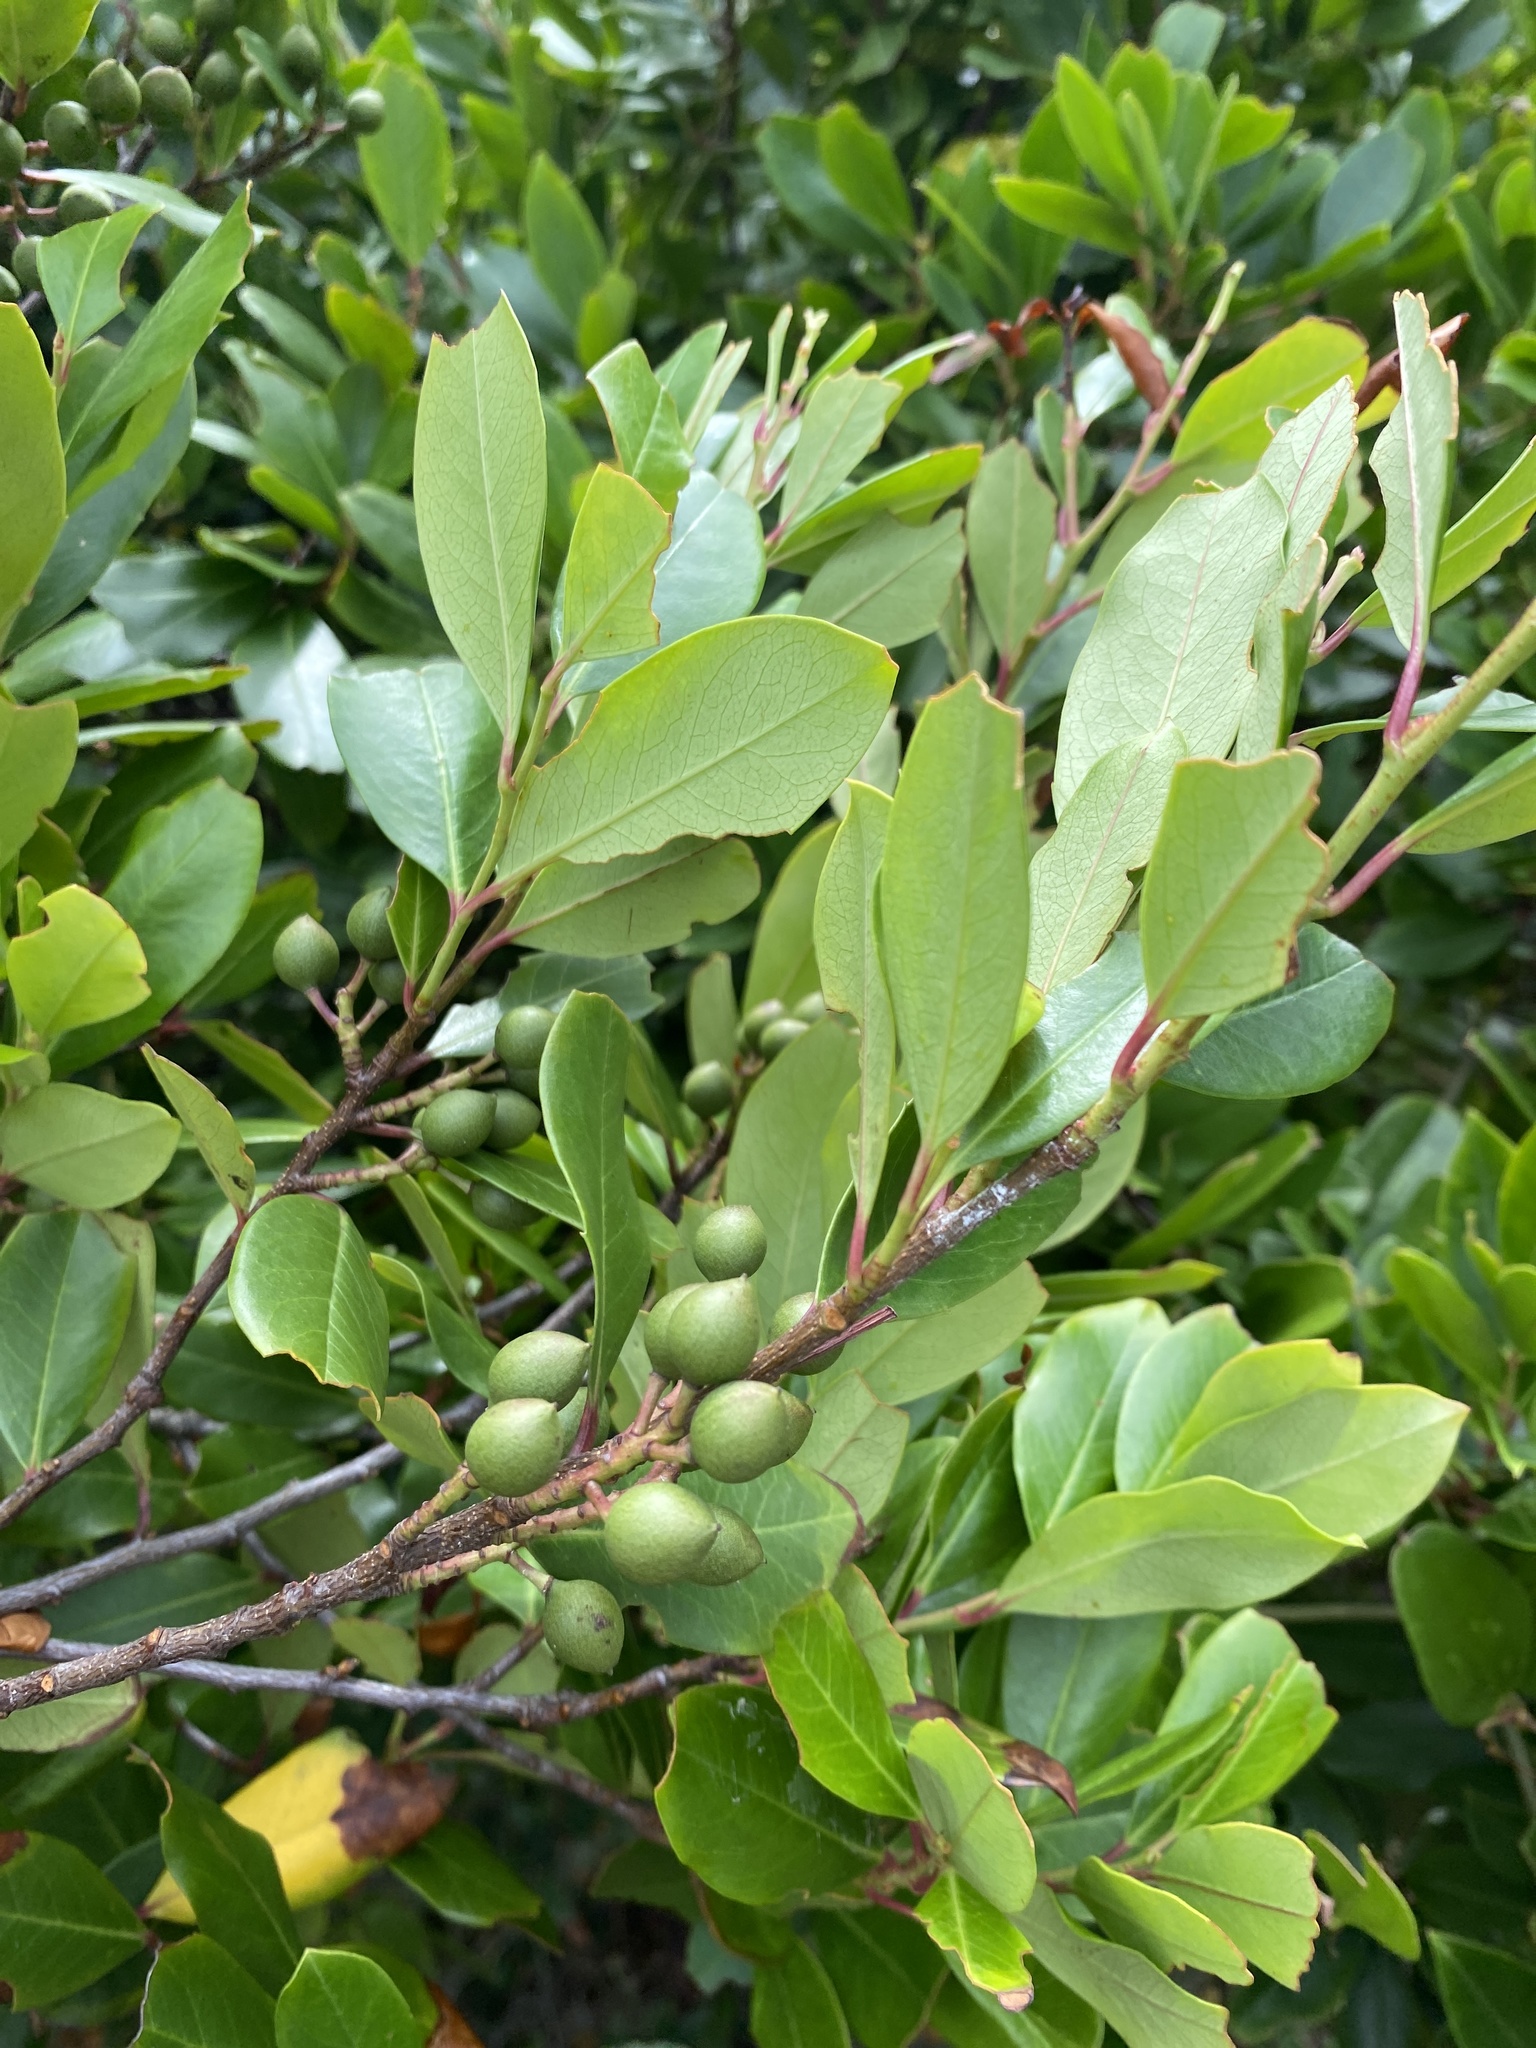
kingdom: Plantae
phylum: Tracheophyta
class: Magnoliopsida
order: Rosales
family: Rosaceae
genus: Prunus
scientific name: Prunus caroliniana
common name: Carolina laurel cherry
